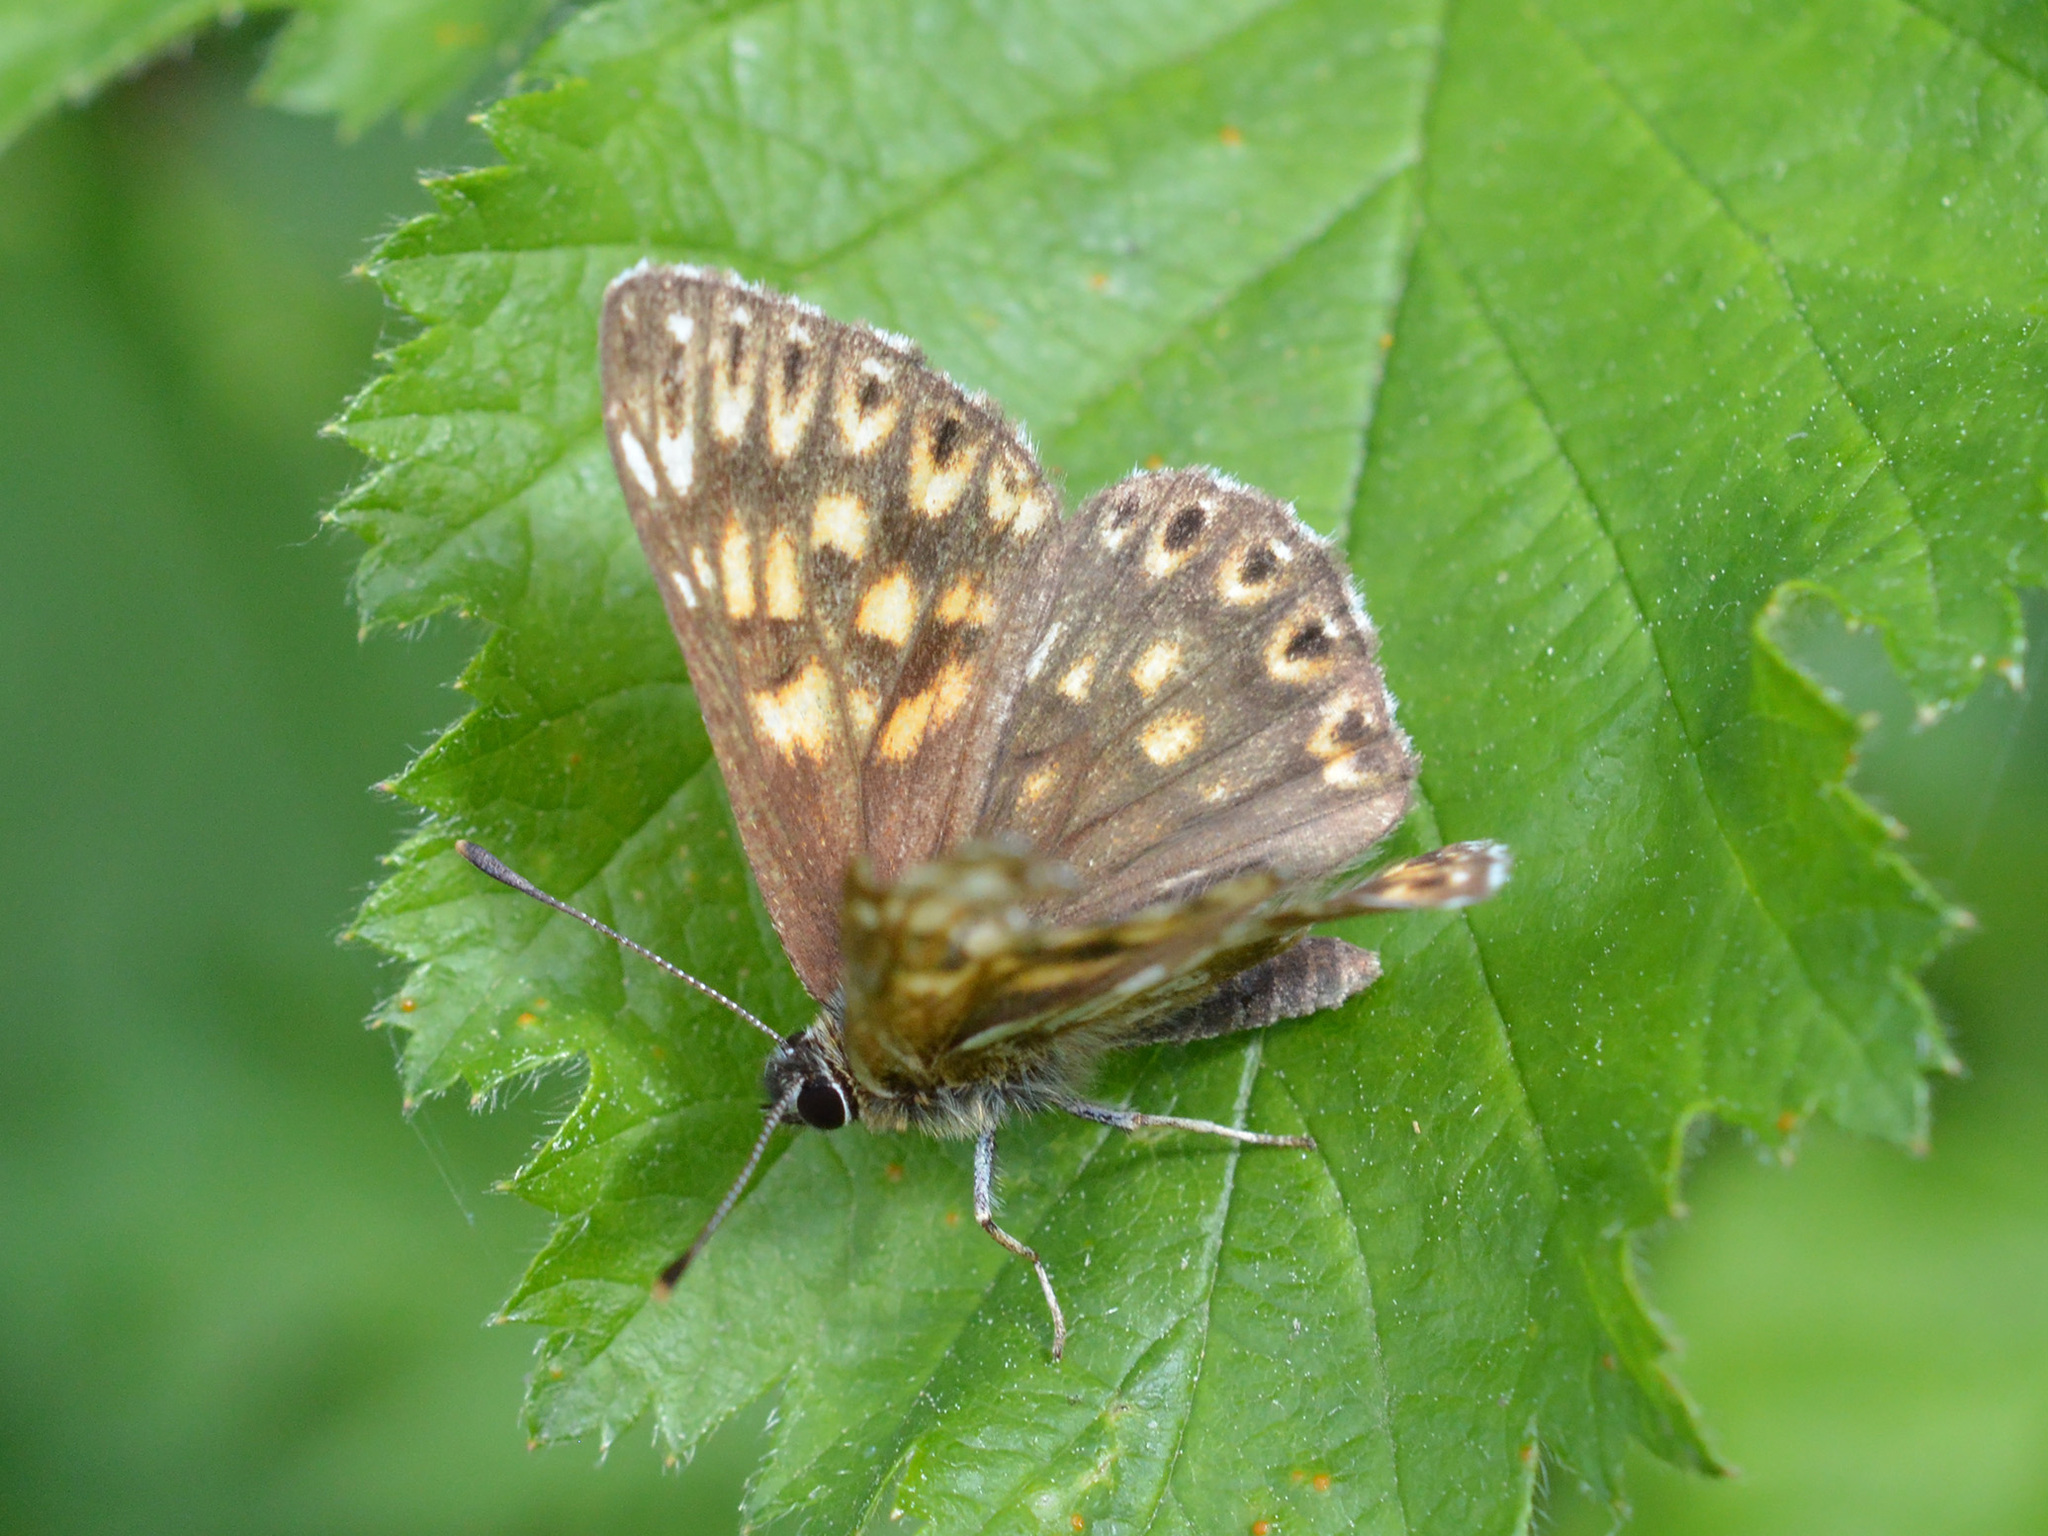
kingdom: Animalia
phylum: Arthropoda
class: Insecta
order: Lepidoptera
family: Riodinidae
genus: Hamearis
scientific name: Hamearis lucina
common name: Duke of burgundy fritillary
